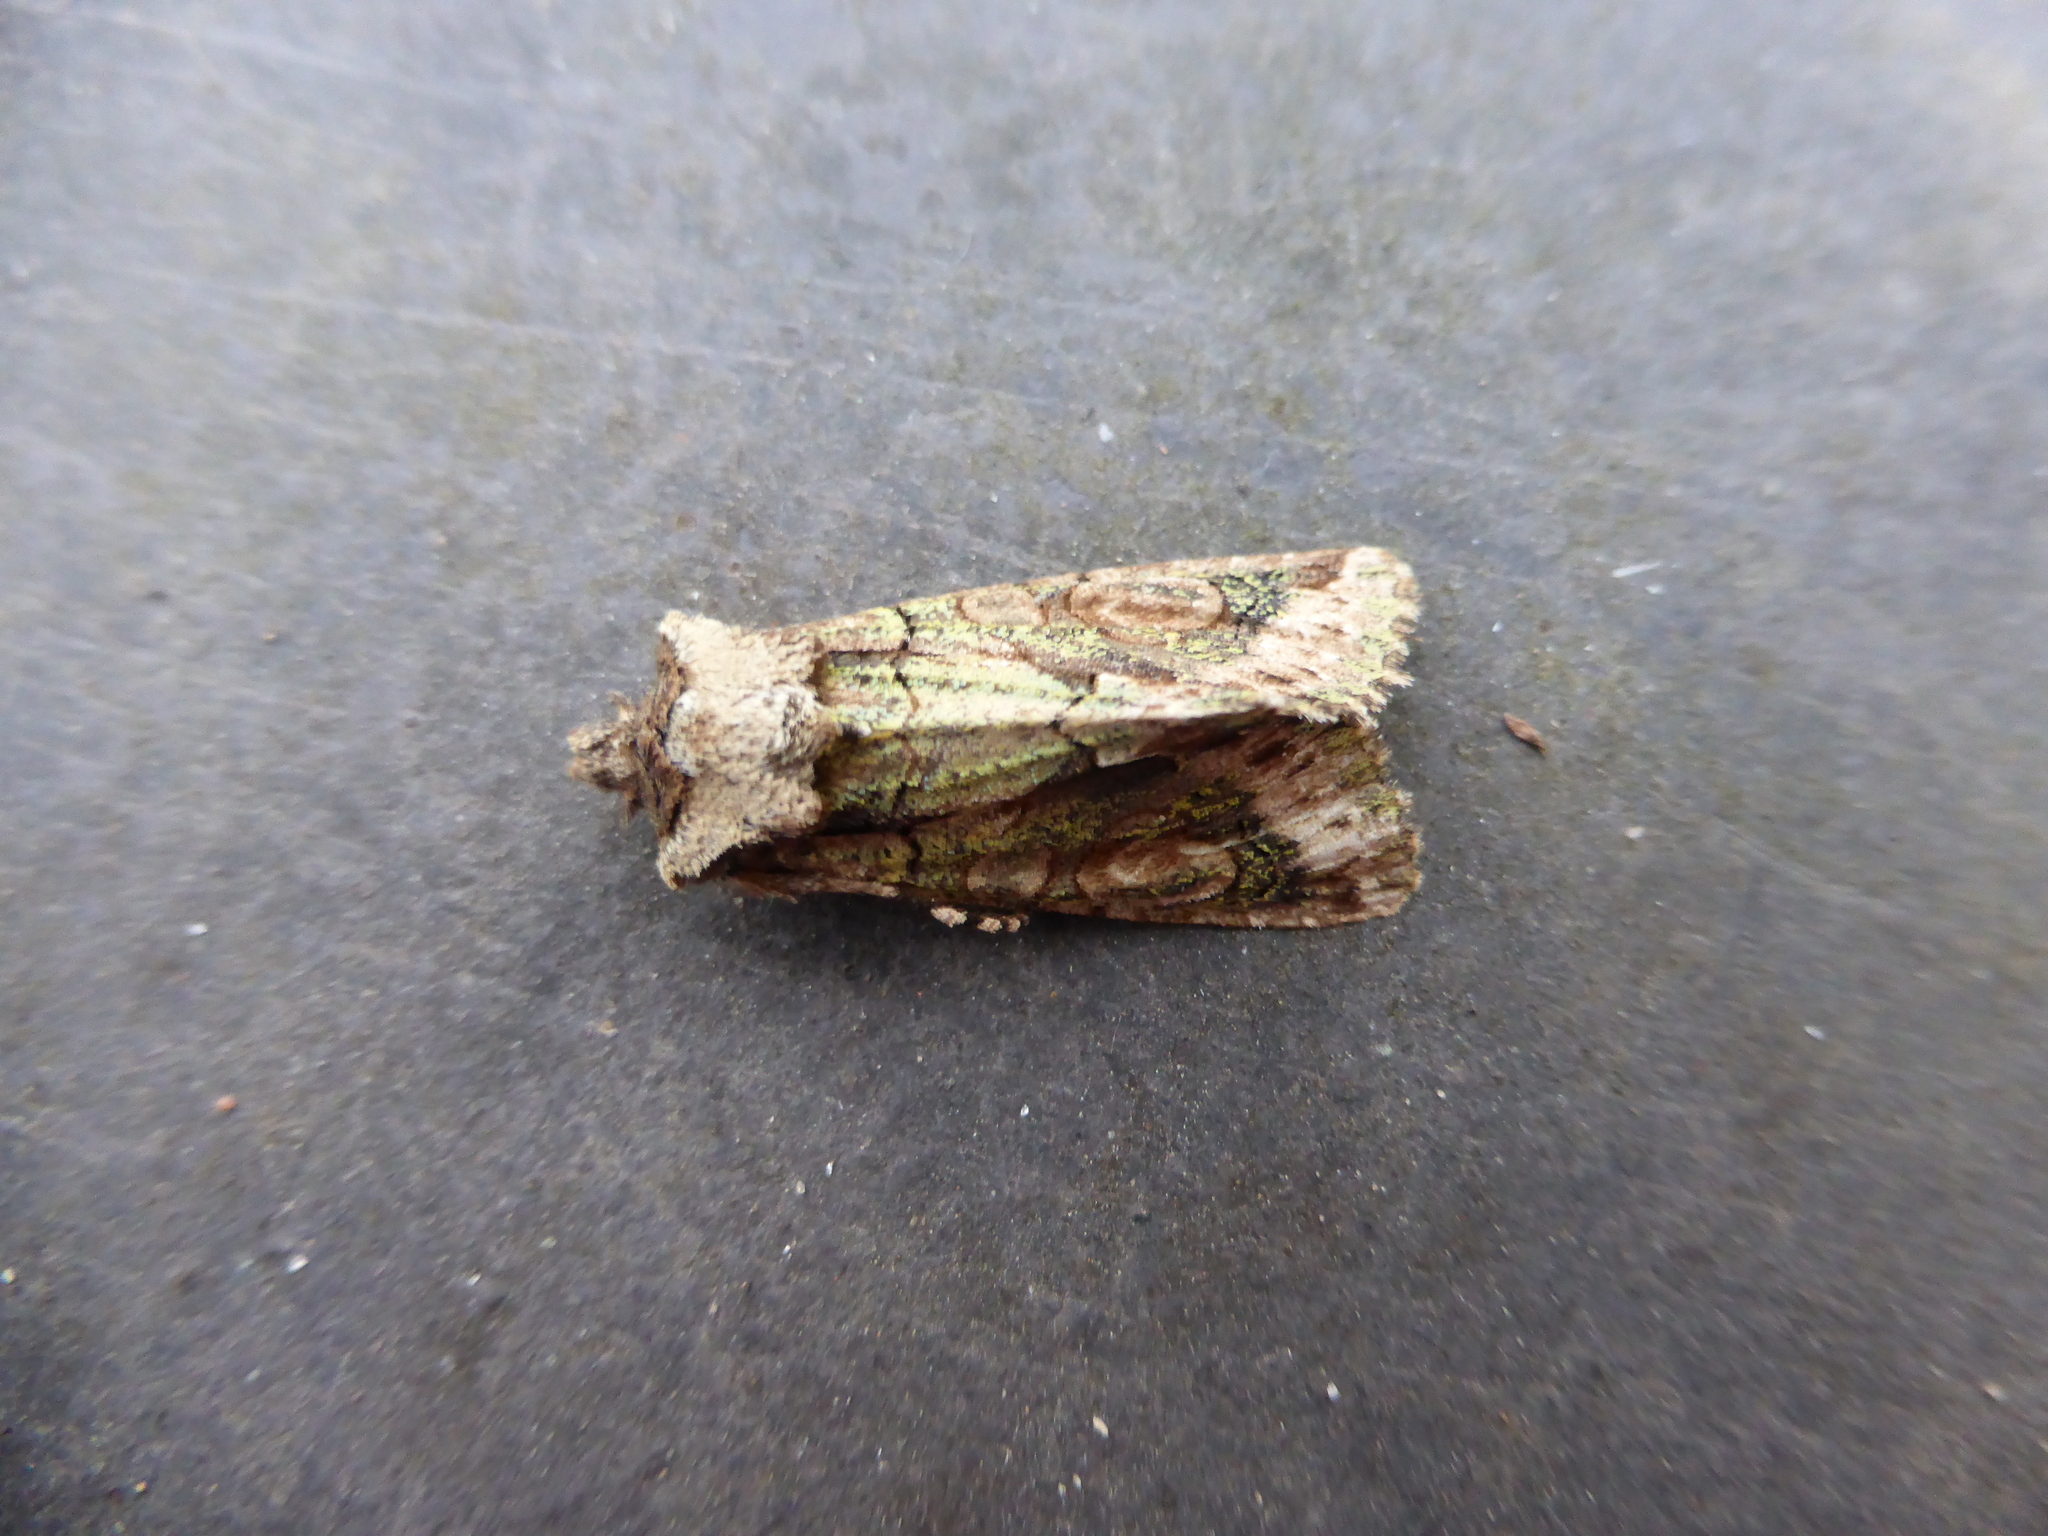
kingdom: Animalia
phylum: Arthropoda
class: Insecta
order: Lepidoptera
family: Noctuidae
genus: Allophyes
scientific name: Allophyes oxyacanthae
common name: Green-brindled crescent
